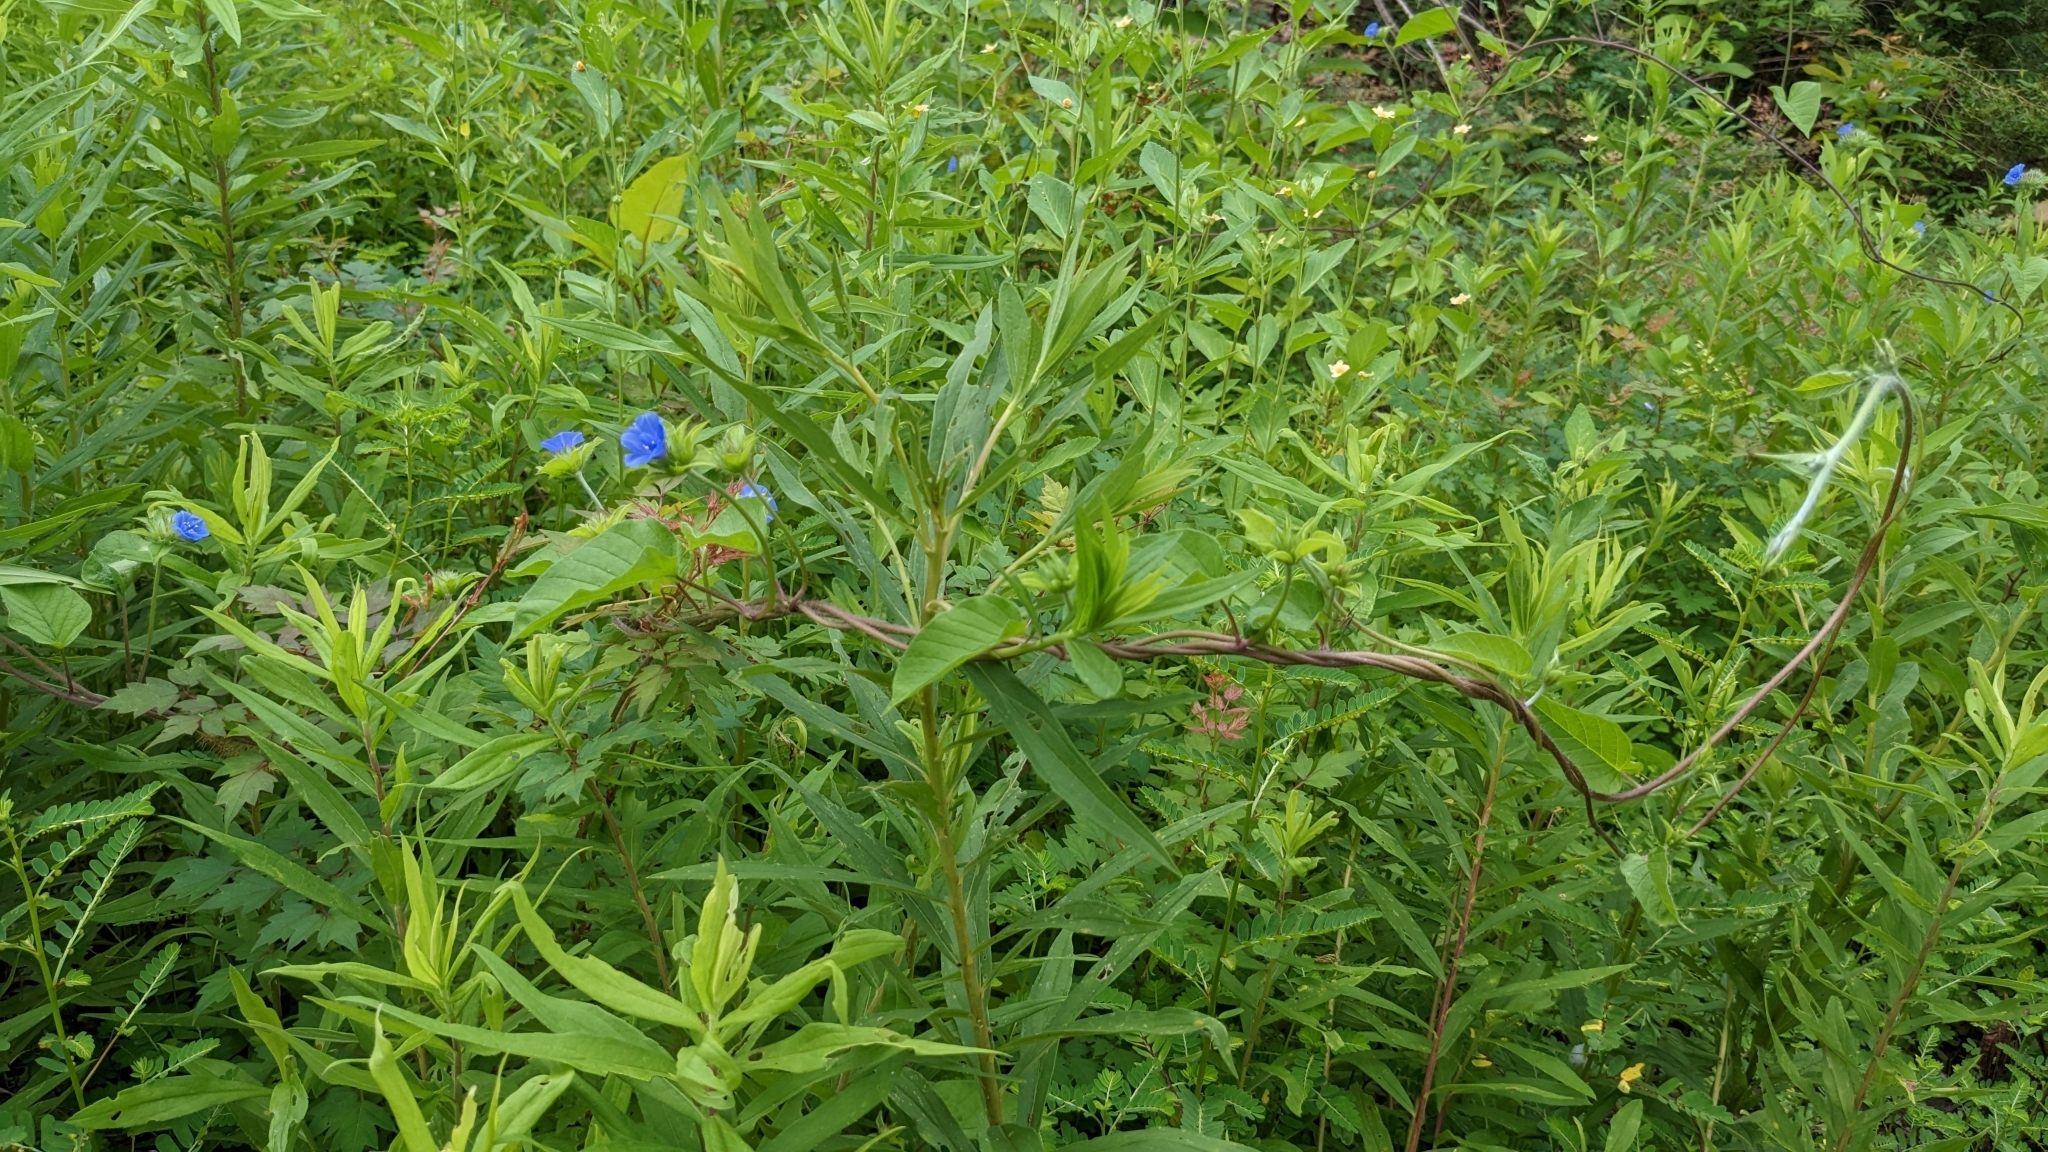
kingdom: Plantae
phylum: Tracheophyta
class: Magnoliopsida
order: Solanales
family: Convolvulaceae
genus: Jacquemontia
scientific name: Jacquemontia tamnifolia
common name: Hairy clustervine
